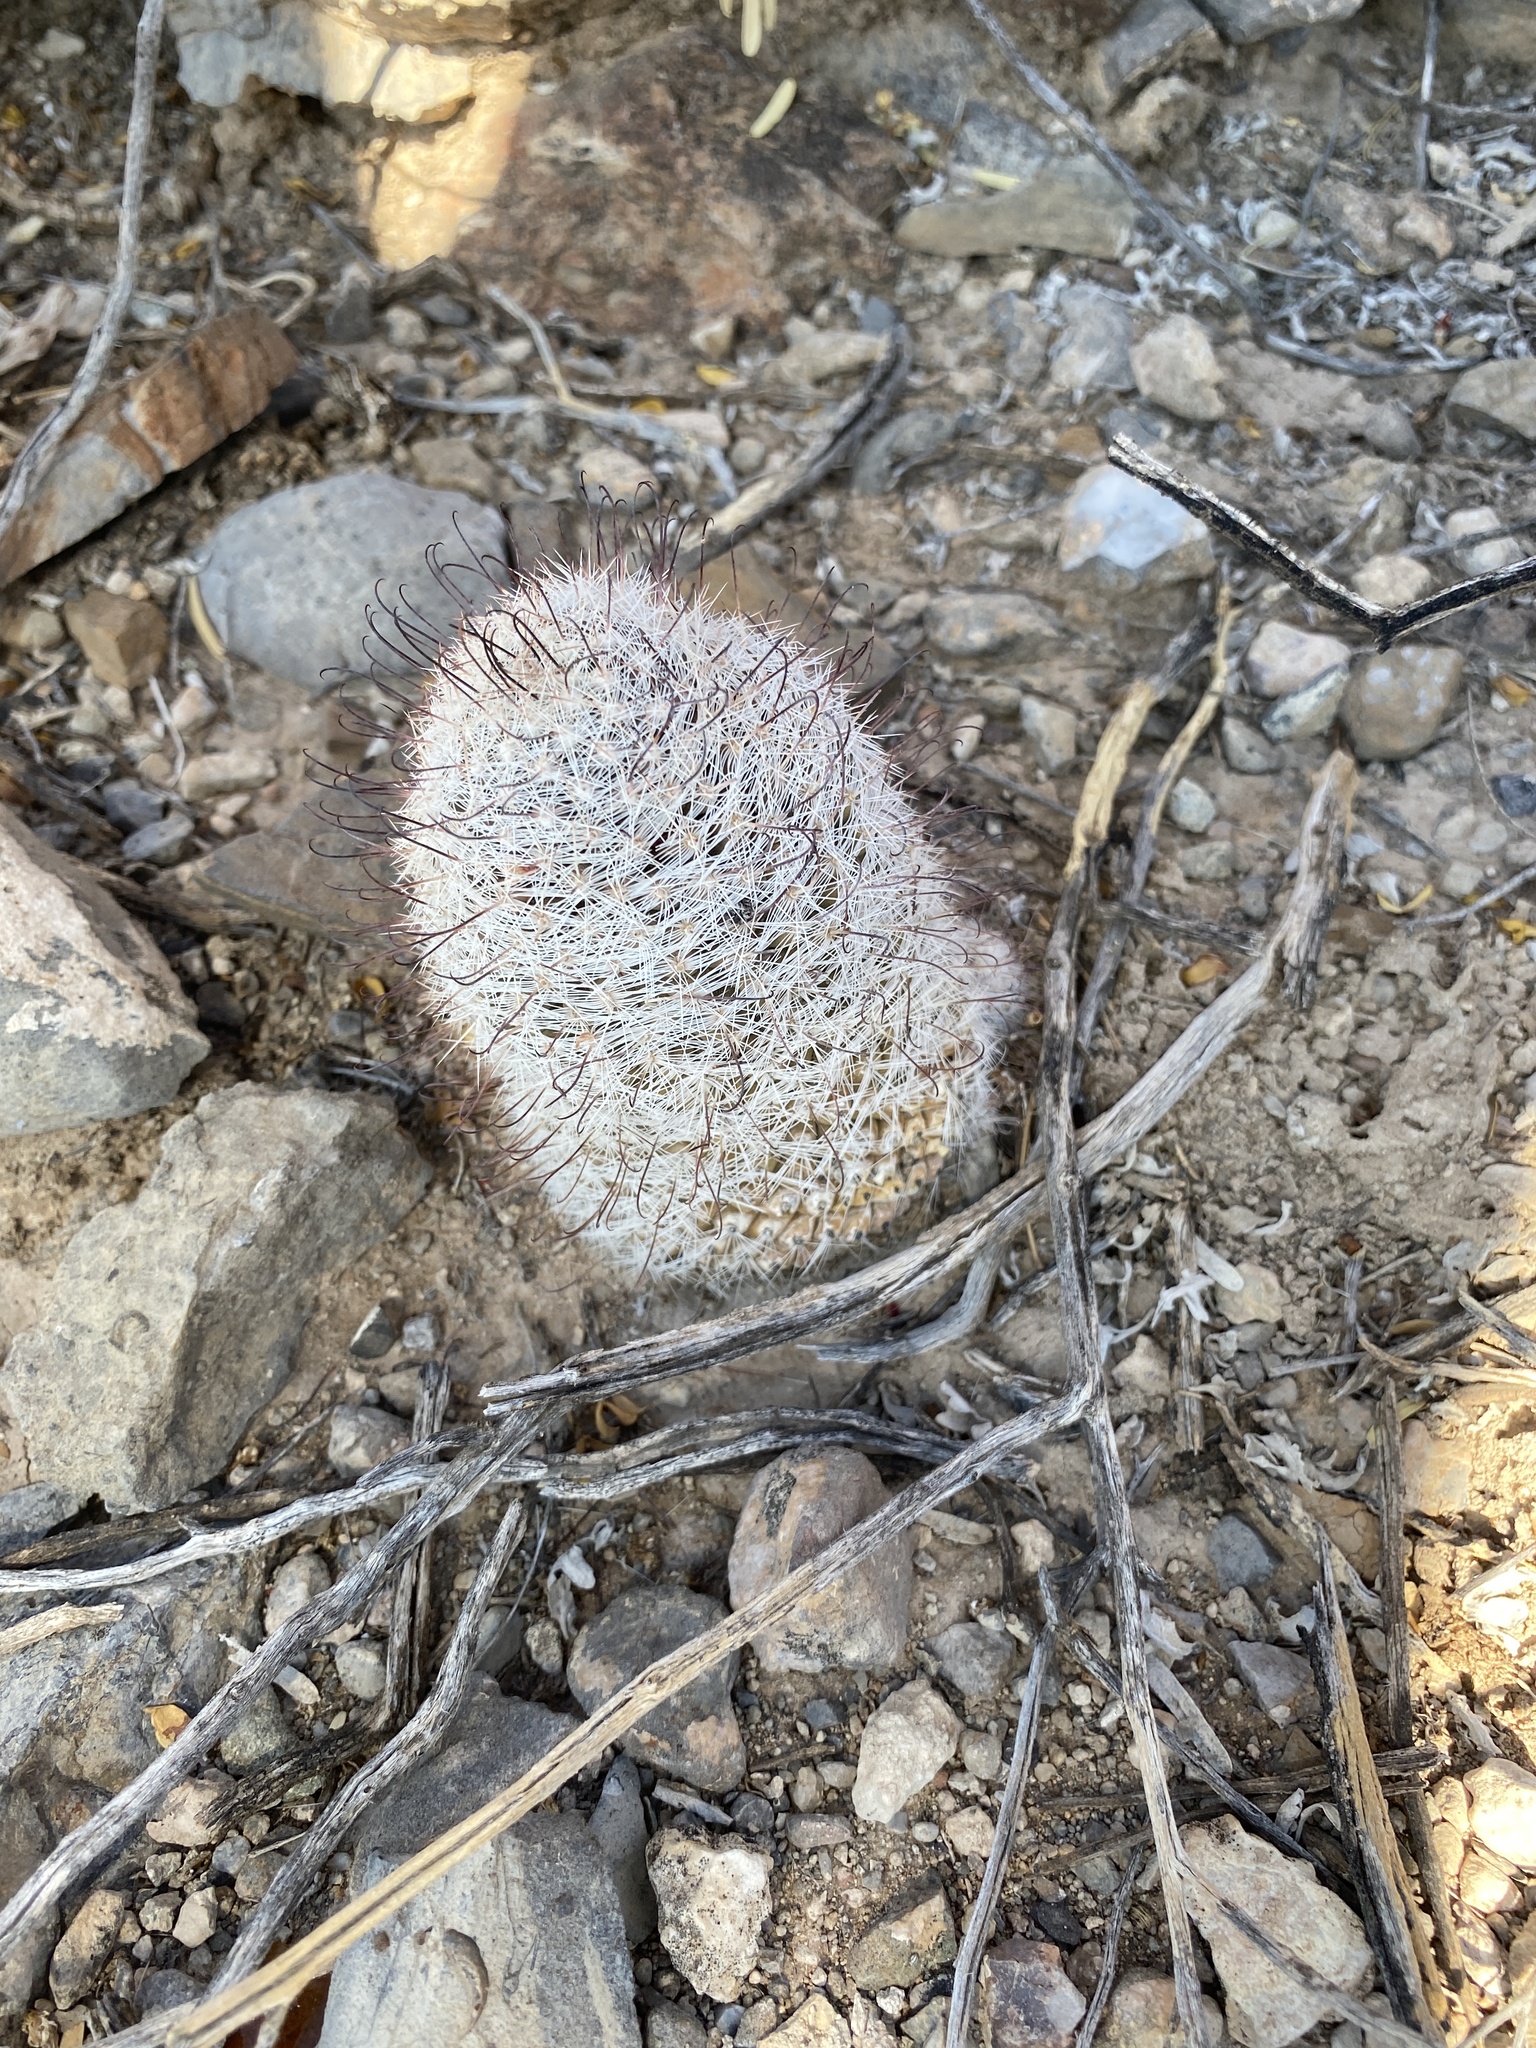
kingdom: Plantae
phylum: Tracheophyta
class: Magnoliopsida
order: Caryophyllales
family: Cactaceae
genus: Cochemiea
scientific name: Cochemiea grahamii
